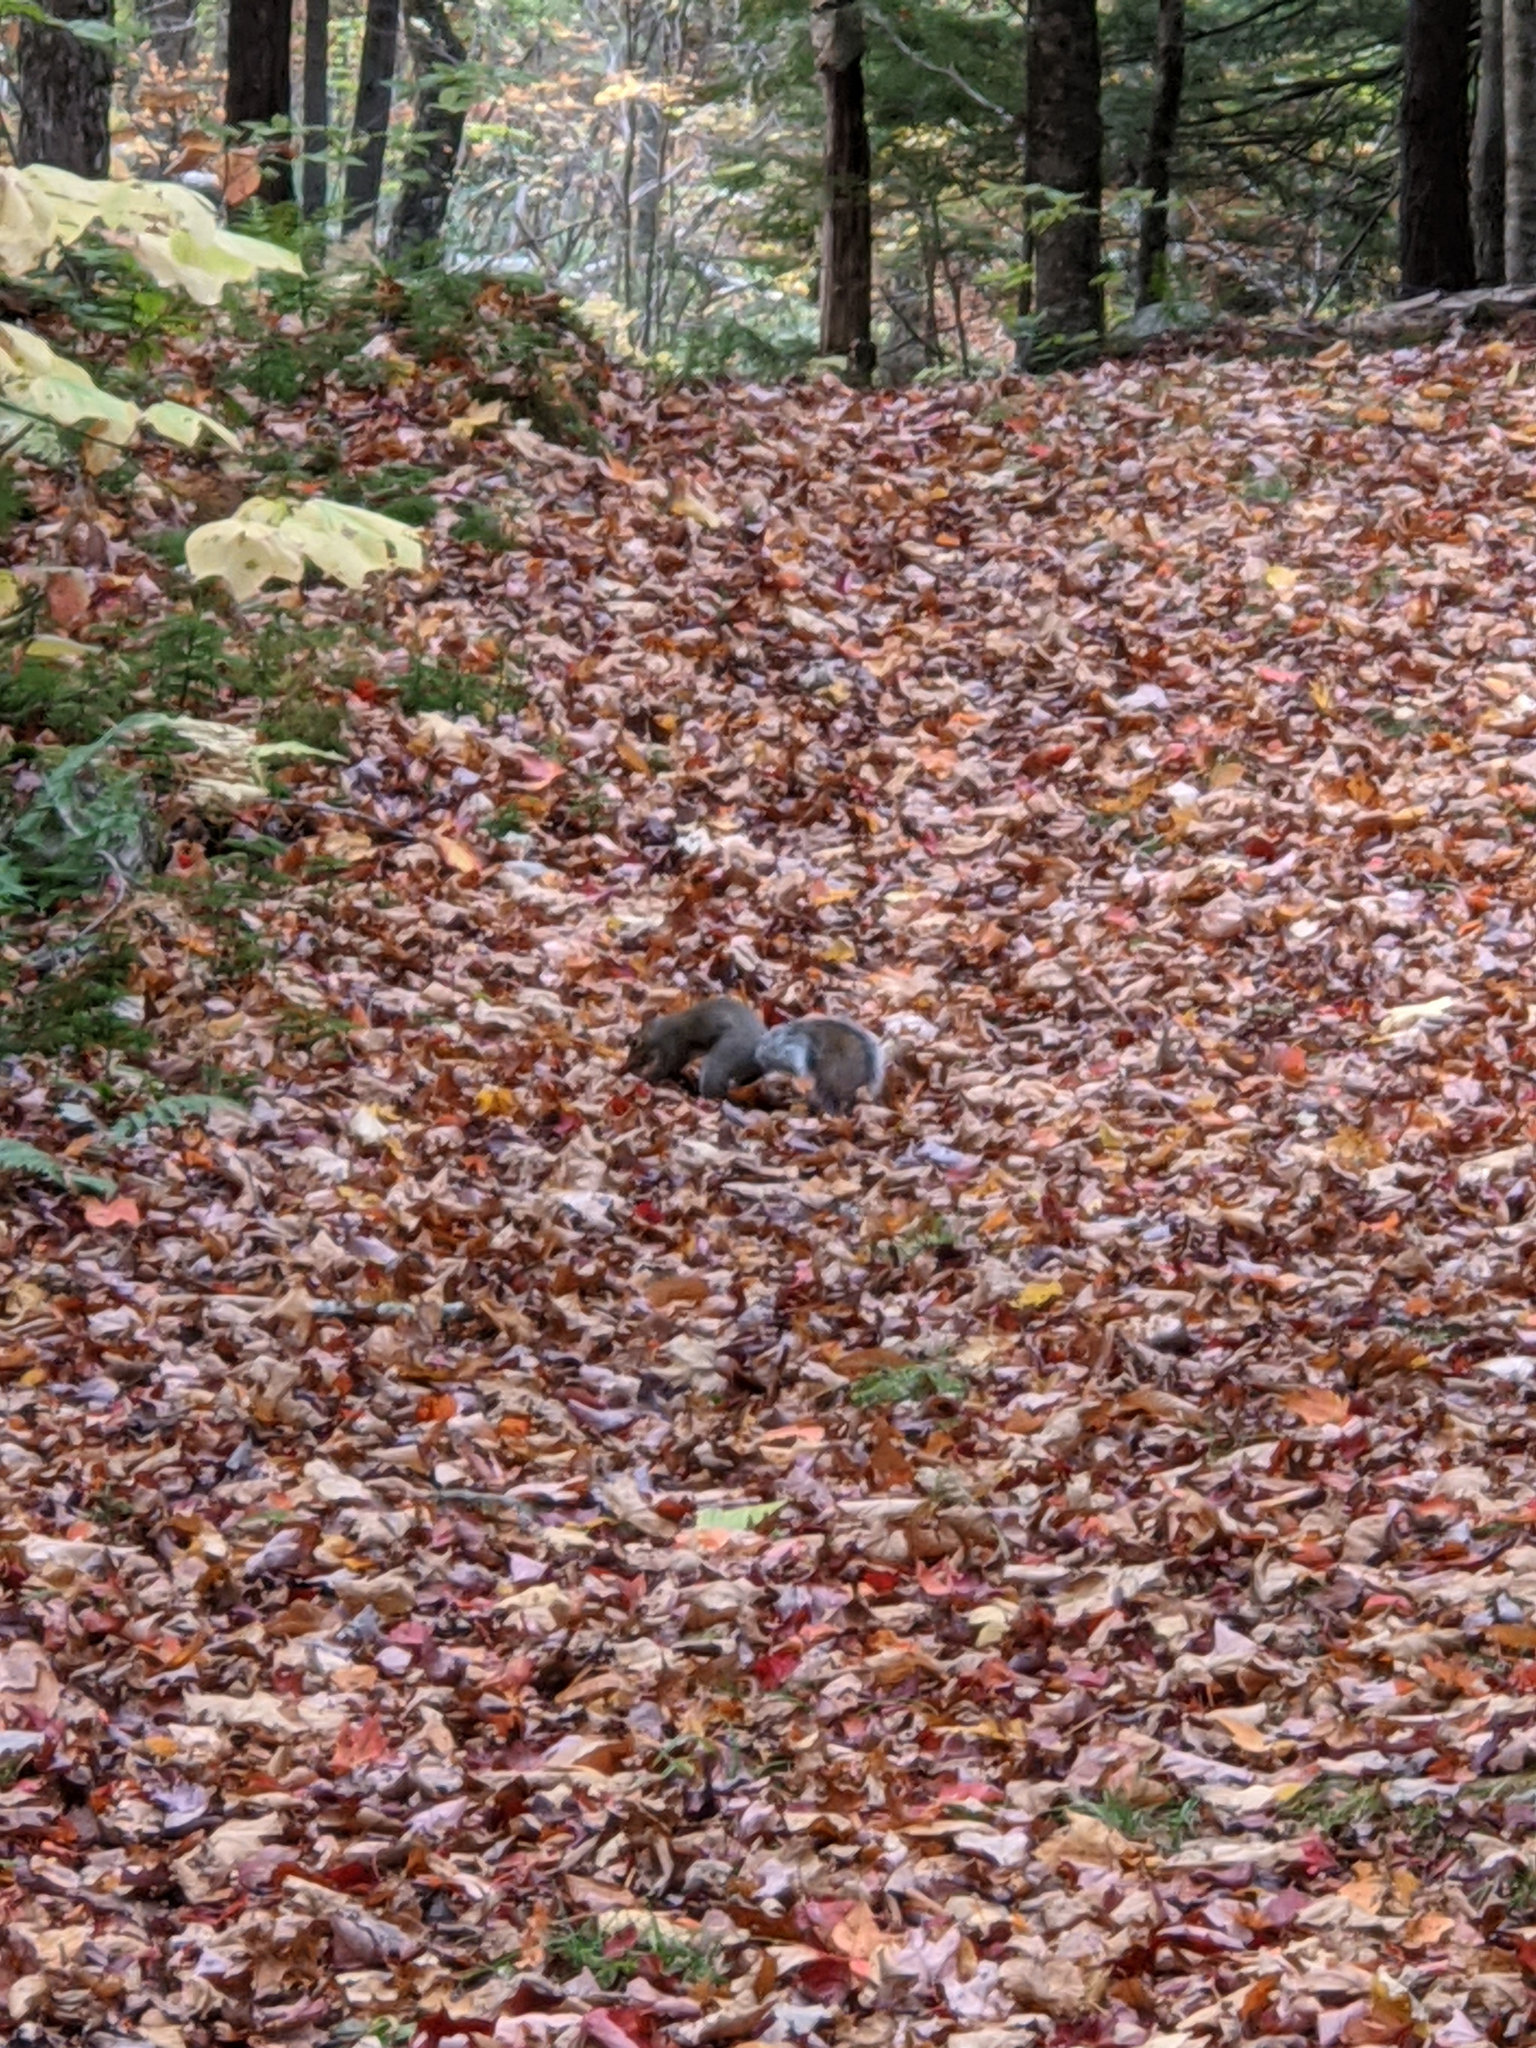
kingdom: Animalia
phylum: Chordata
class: Mammalia
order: Rodentia
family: Sciuridae
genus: Sciurus
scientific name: Sciurus carolinensis
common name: Eastern gray squirrel
